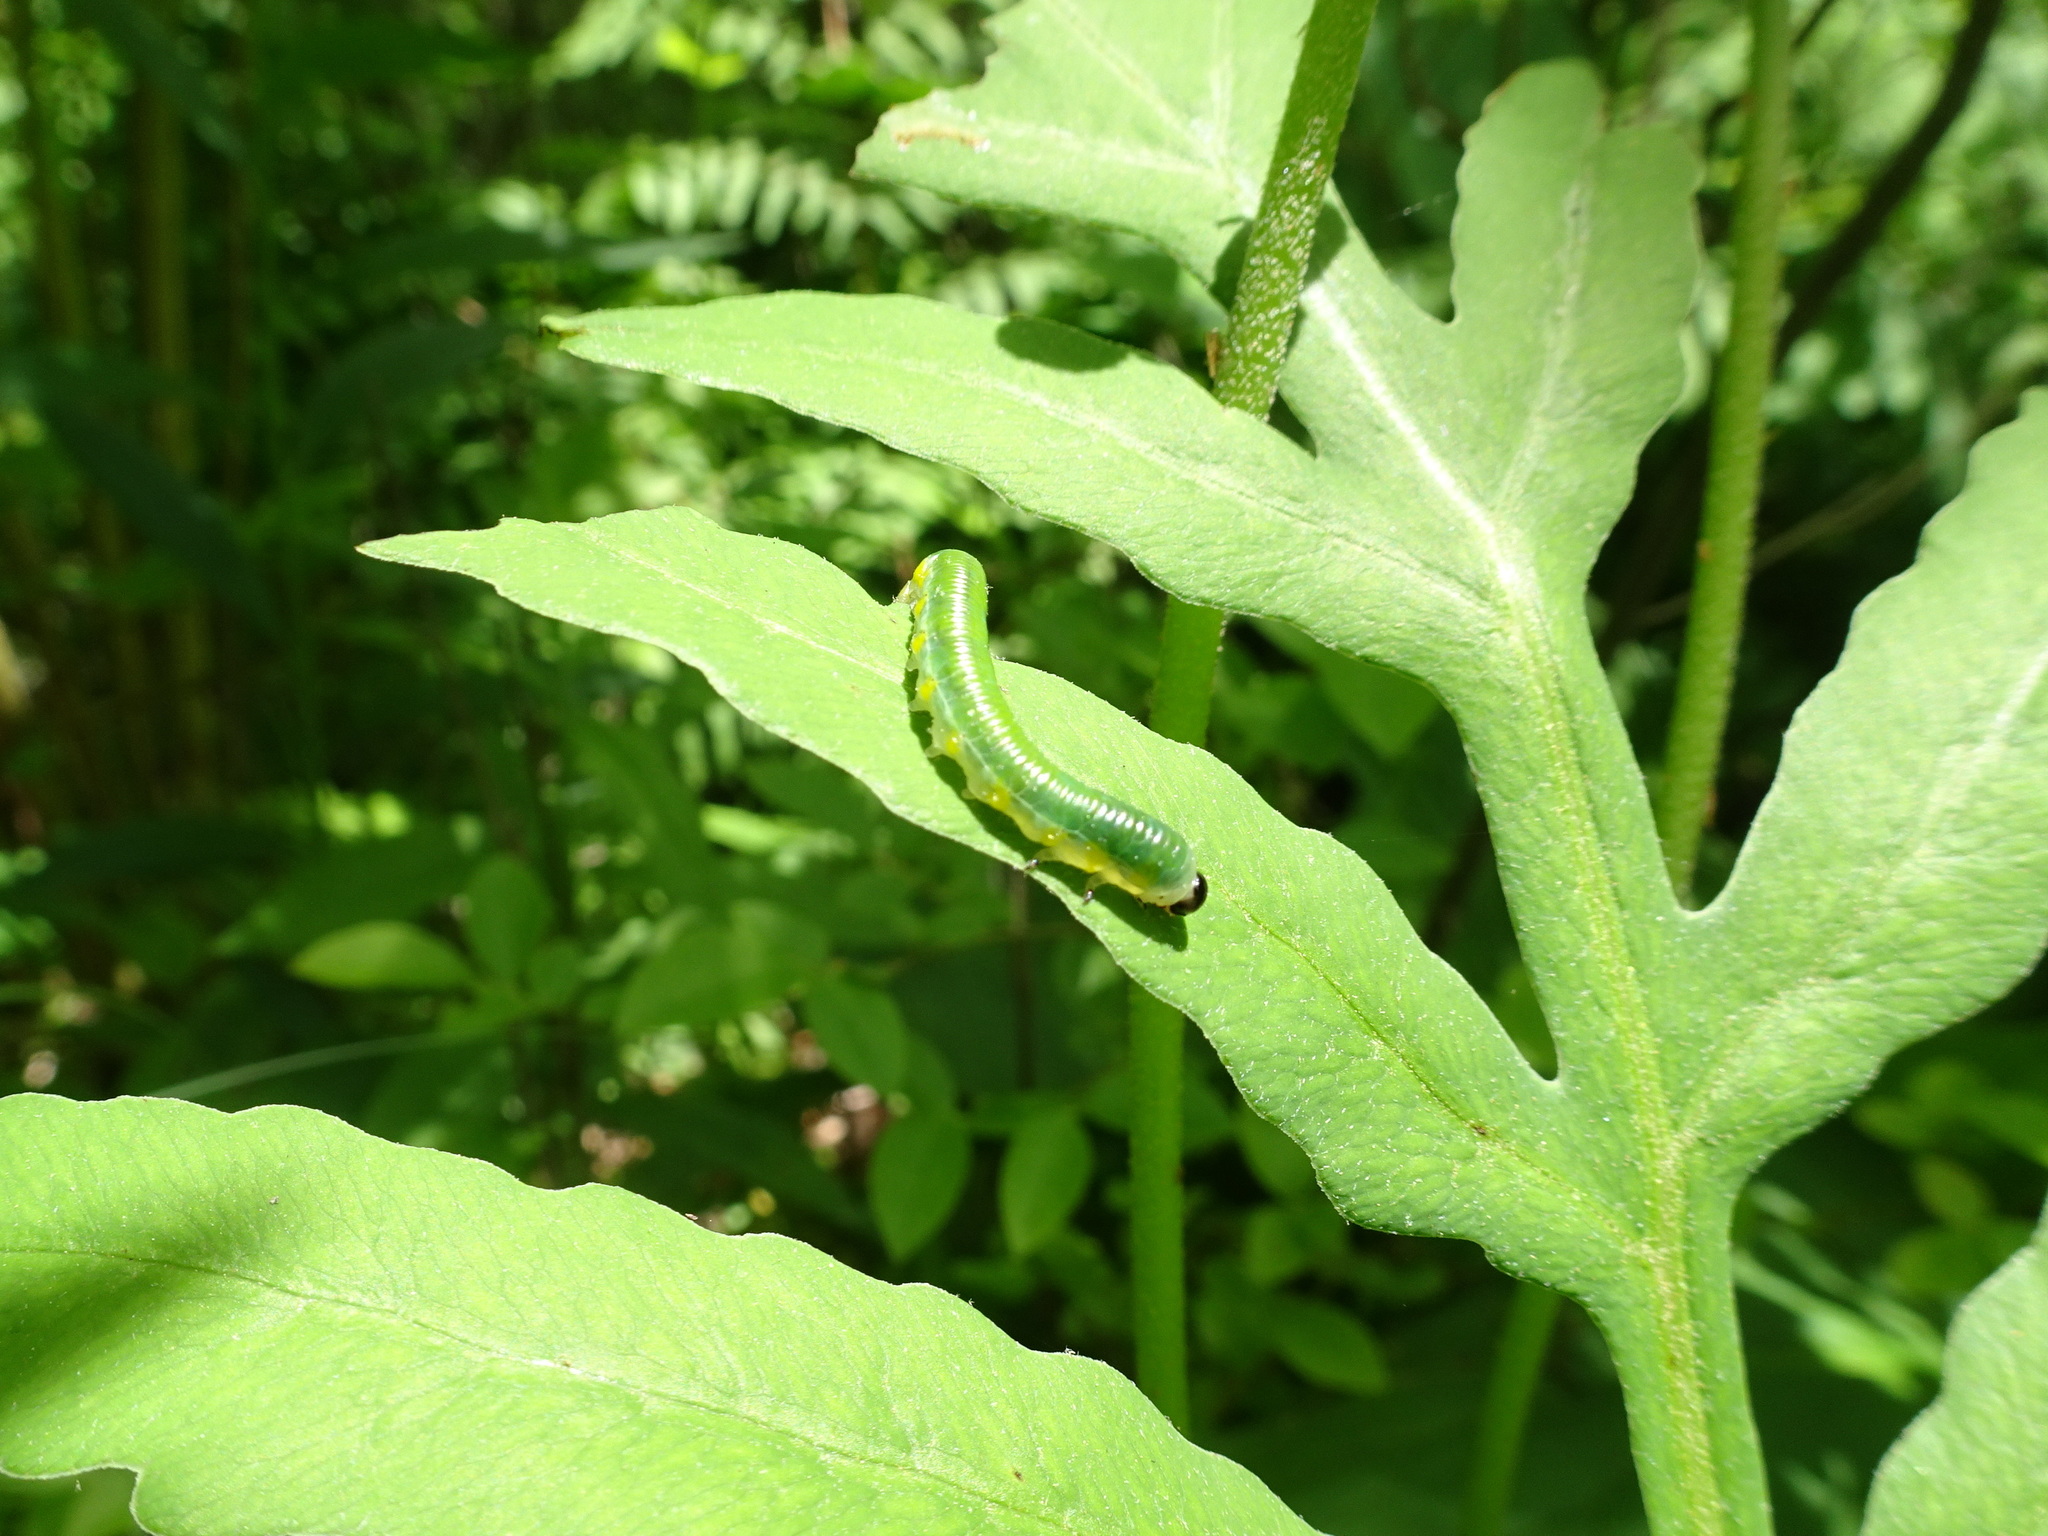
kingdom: Animalia
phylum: Arthropoda
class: Insecta
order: Hymenoptera
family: Tenthredinidae
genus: Thrinax
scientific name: Thrinax dubitata
